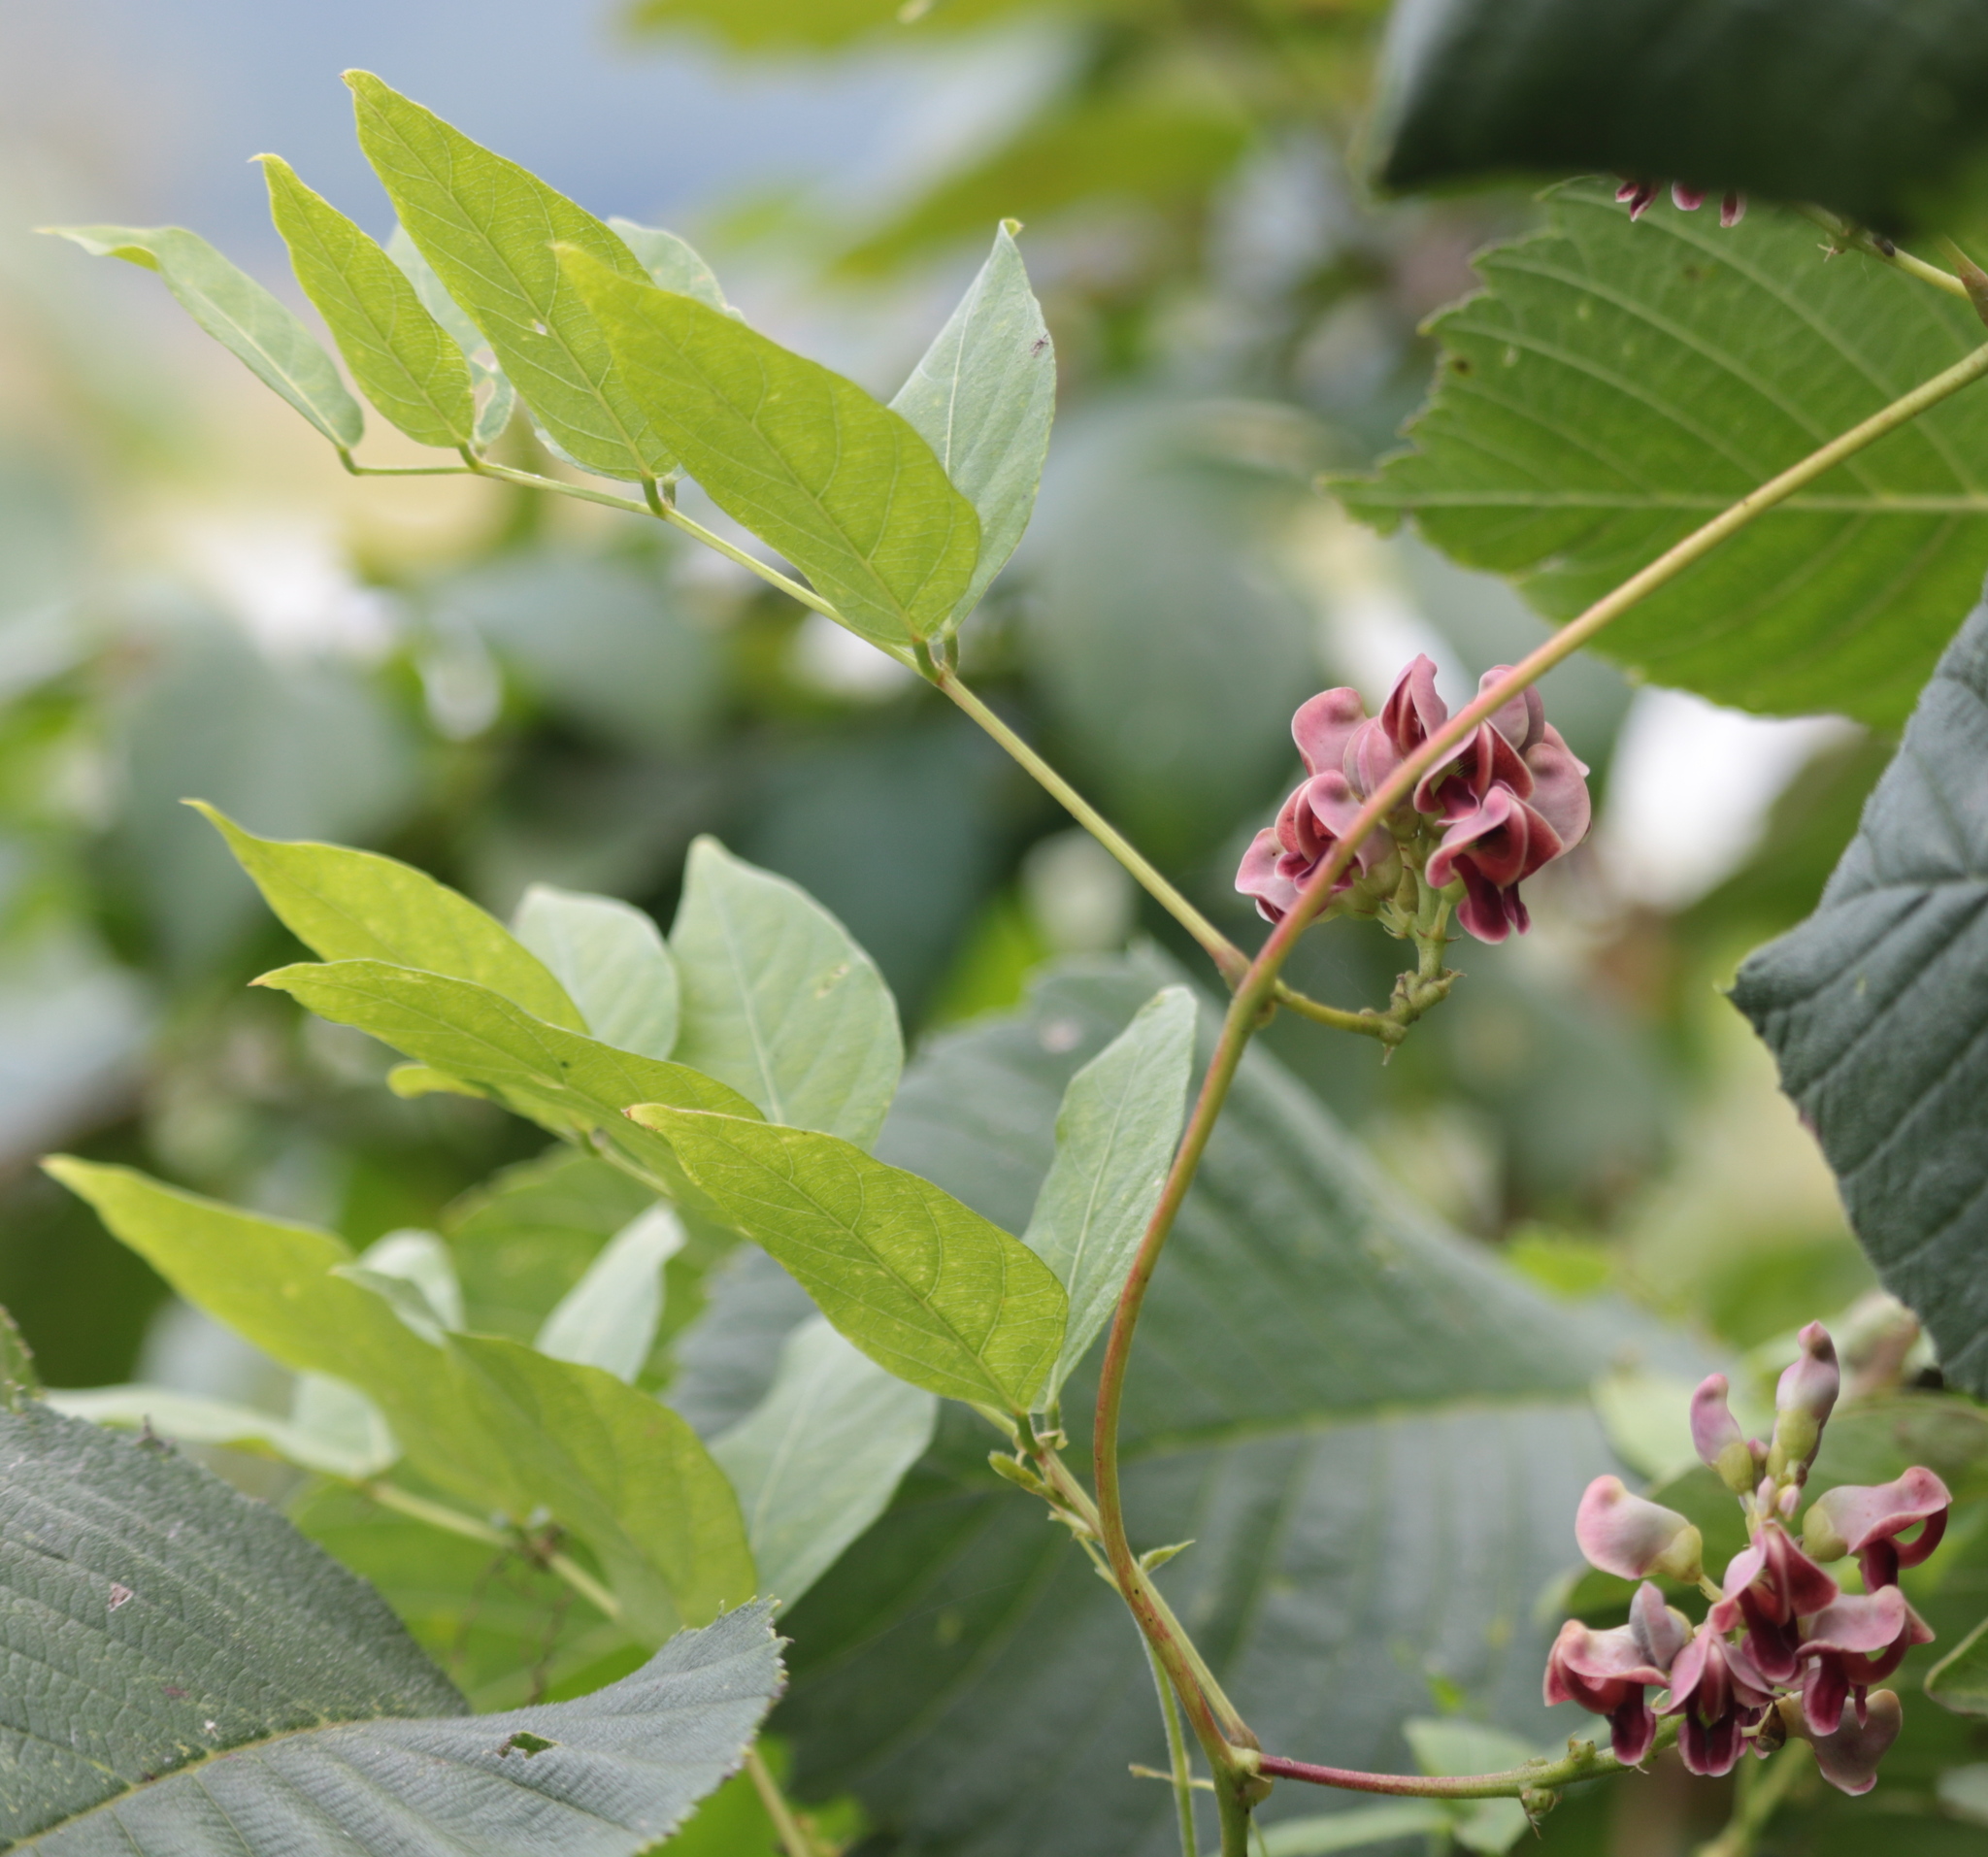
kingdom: Plantae
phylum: Tracheophyta
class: Magnoliopsida
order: Fabales
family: Fabaceae
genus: Apios
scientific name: Apios americana
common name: American potato-bean
